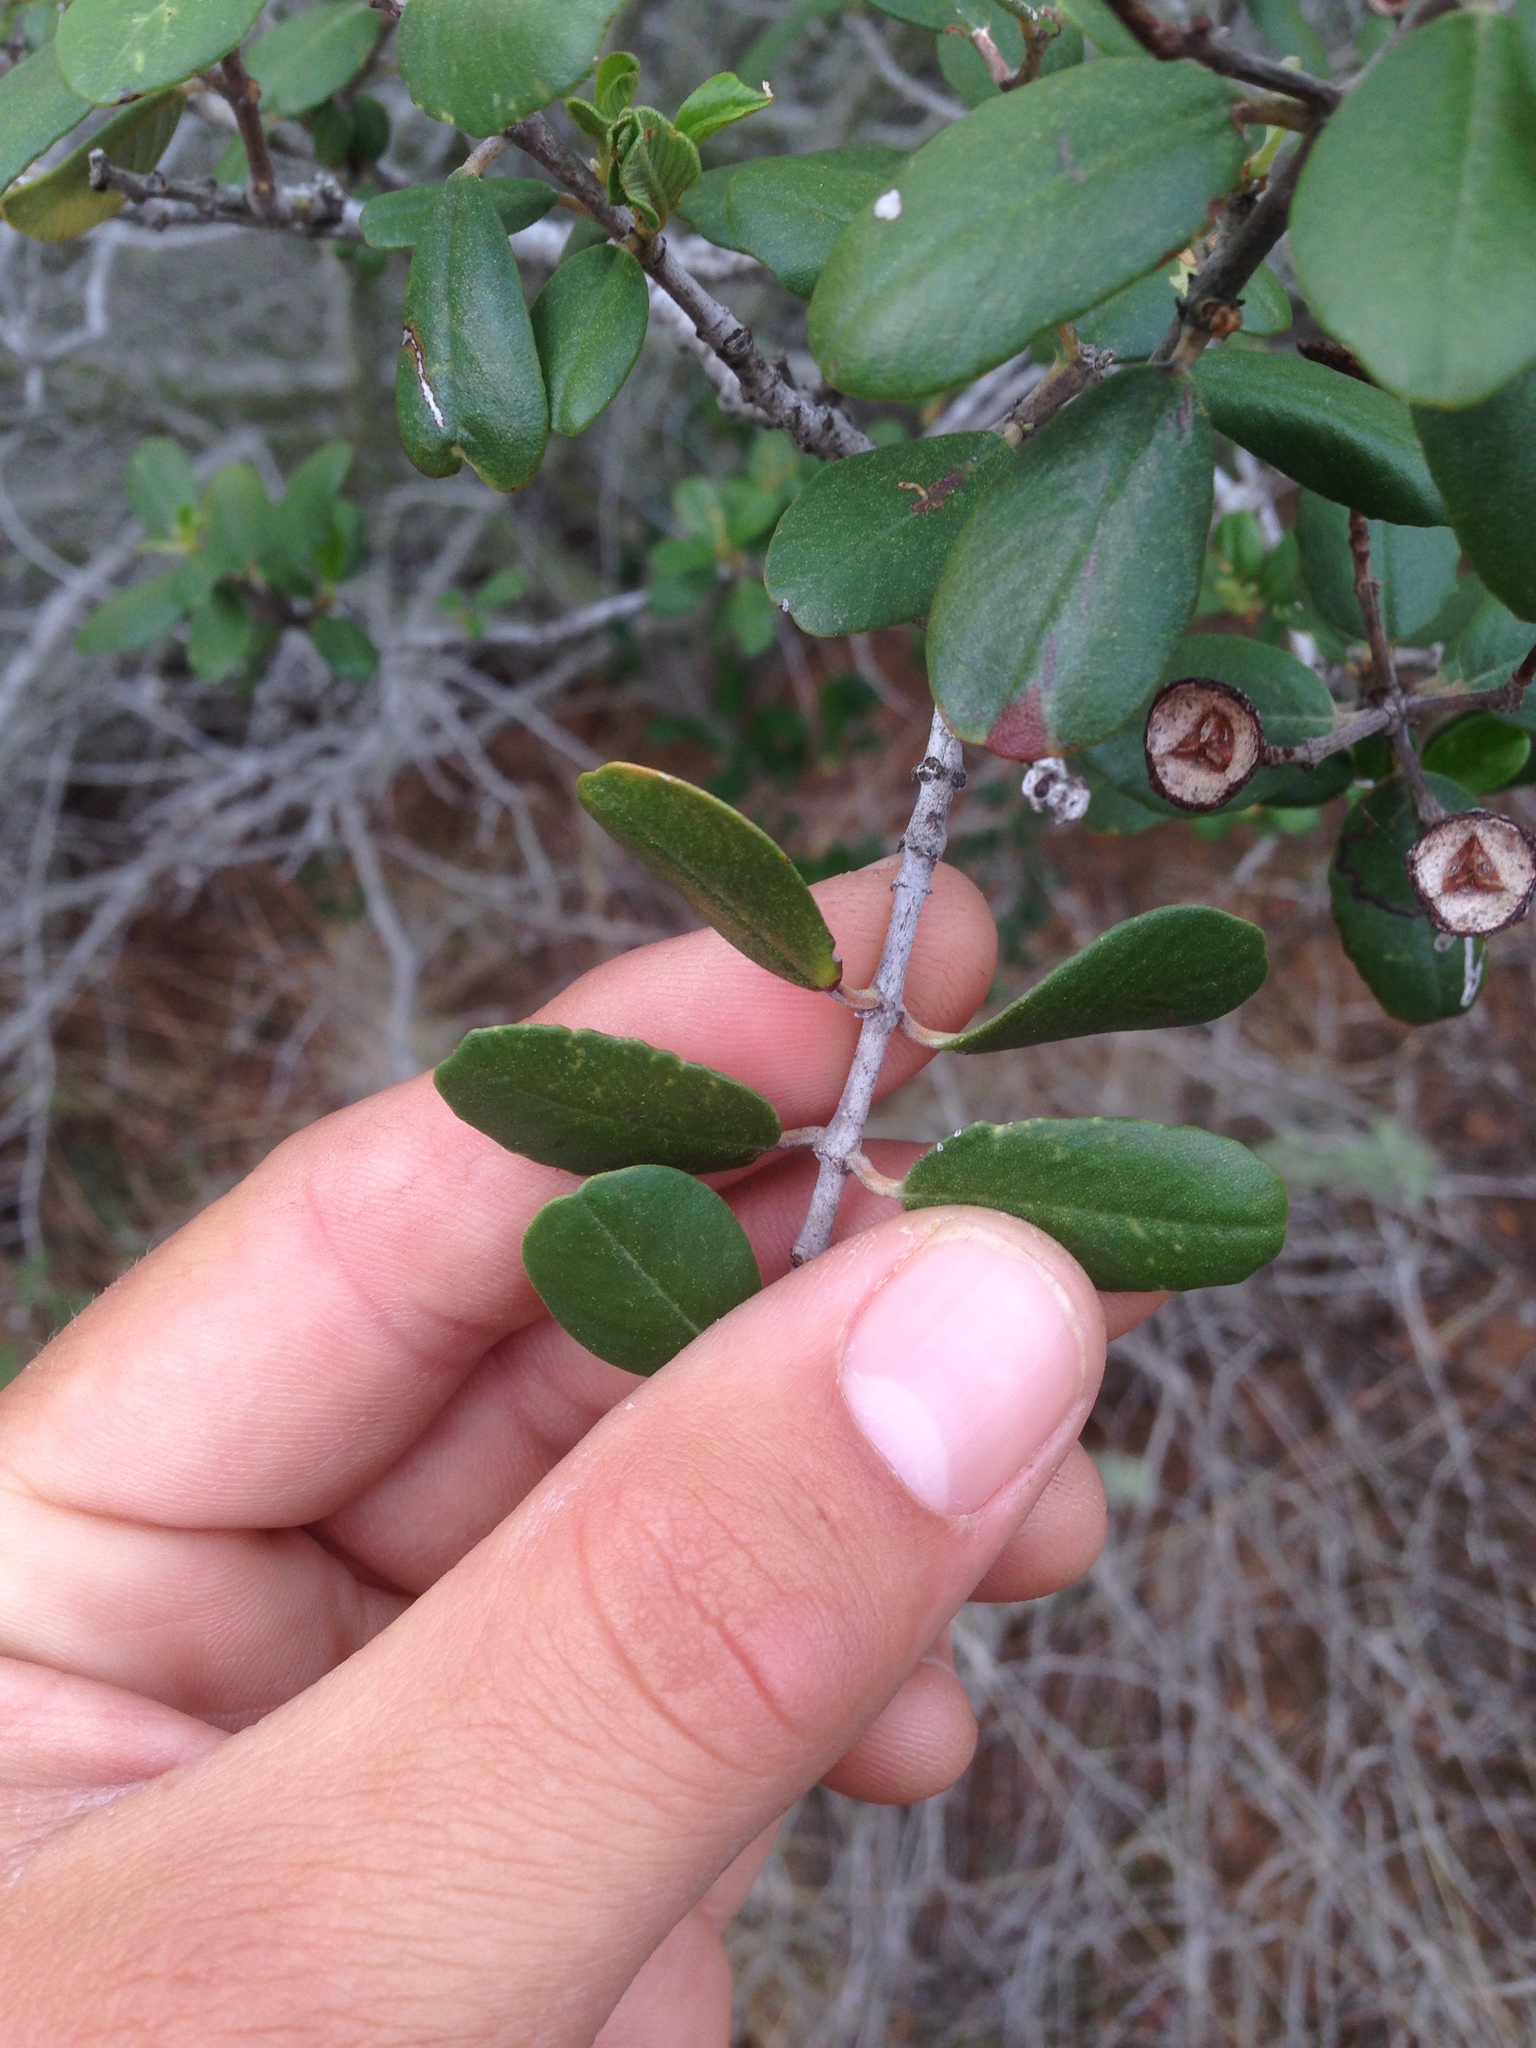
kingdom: Plantae
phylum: Tracheophyta
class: Magnoliopsida
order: Rosales
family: Rhamnaceae
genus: Ceanothus
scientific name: Ceanothus megacarpus
